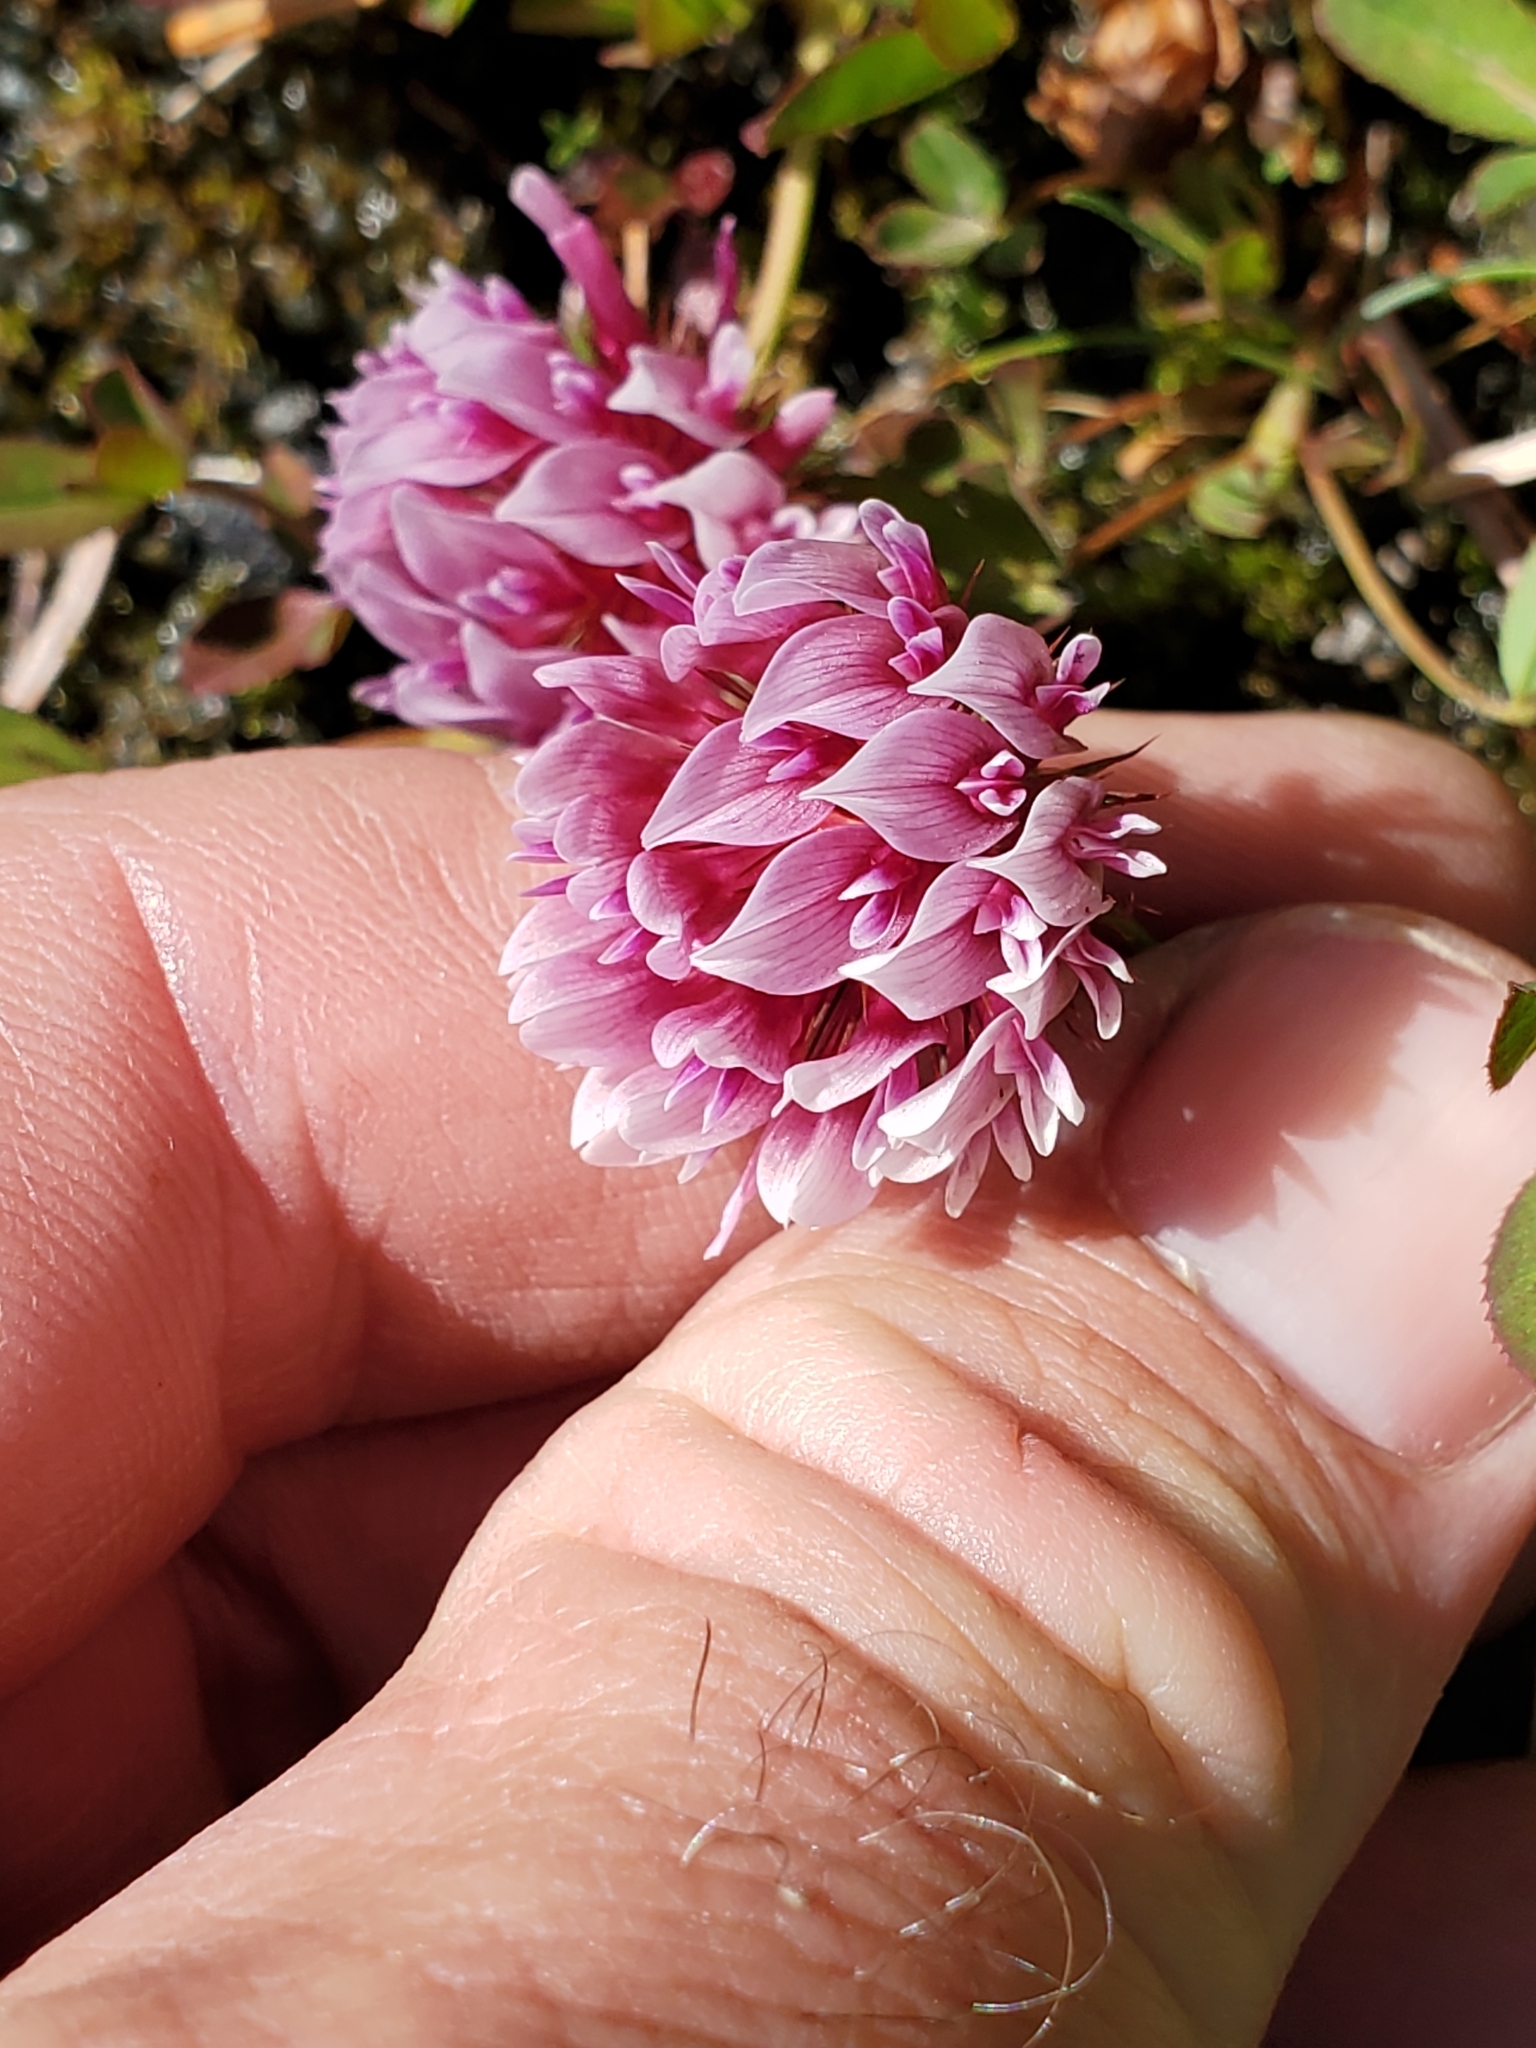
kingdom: Plantae
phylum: Tracheophyta
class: Magnoliopsida
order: Fabales
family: Fabaceae
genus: Trifolium
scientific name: Trifolium wormskioldii
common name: Springbank clover
